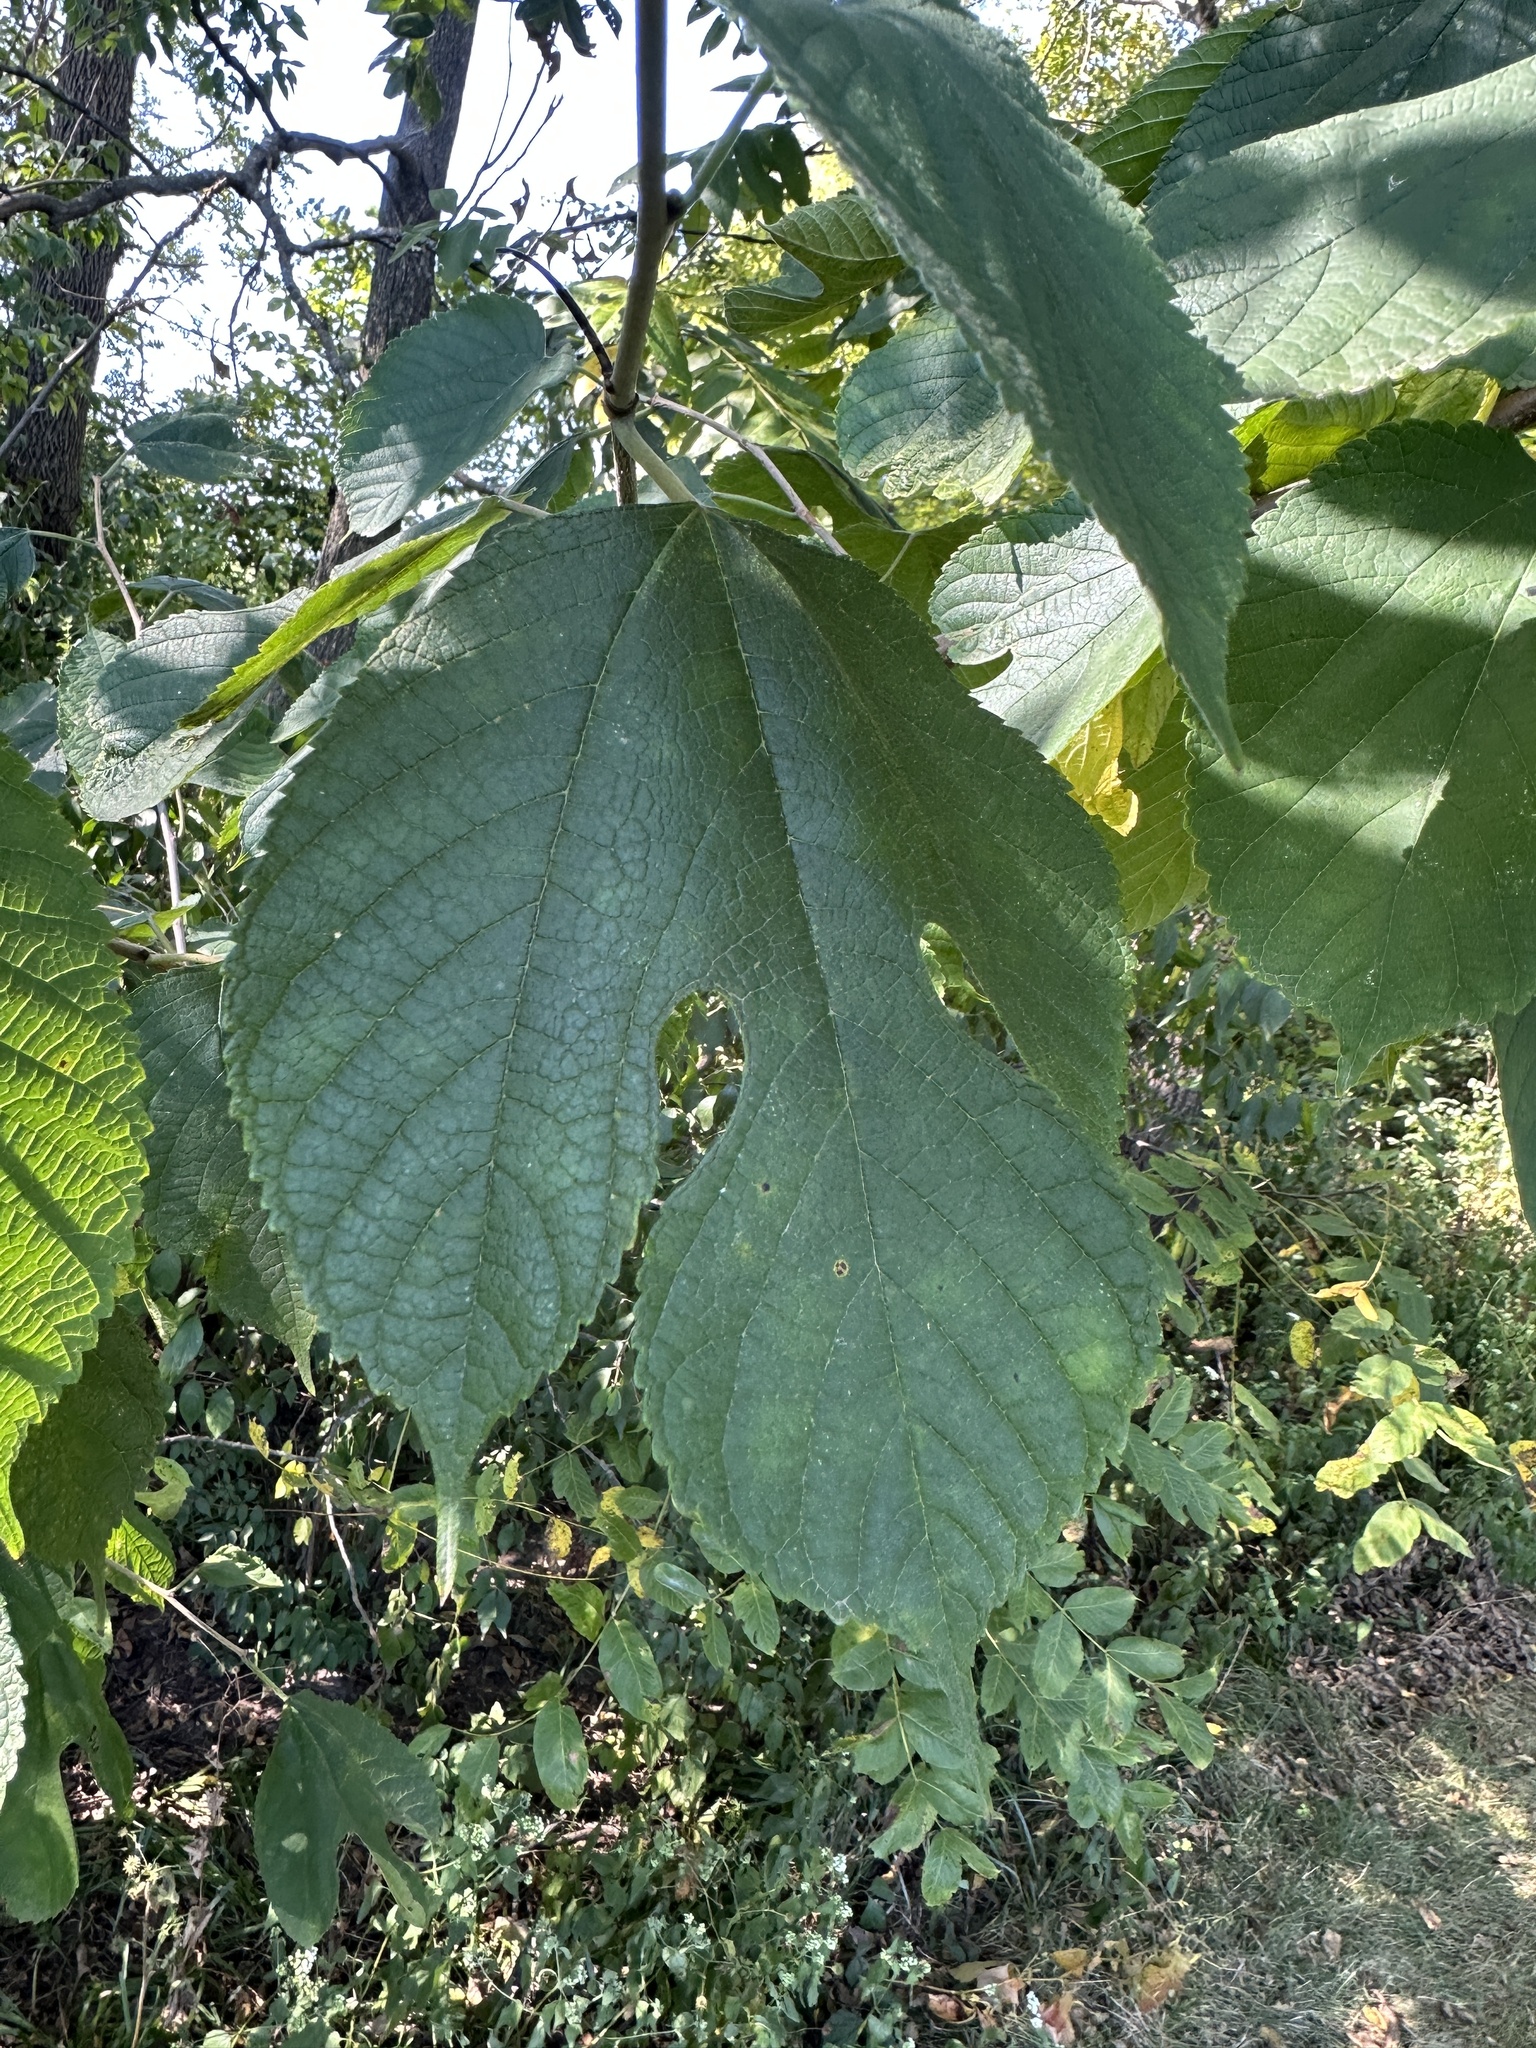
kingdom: Plantae
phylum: Tracheophyta
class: Magnoliopsida
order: Rosales
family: Moraceae
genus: Morus
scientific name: Morus rubra
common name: Red mulberry
